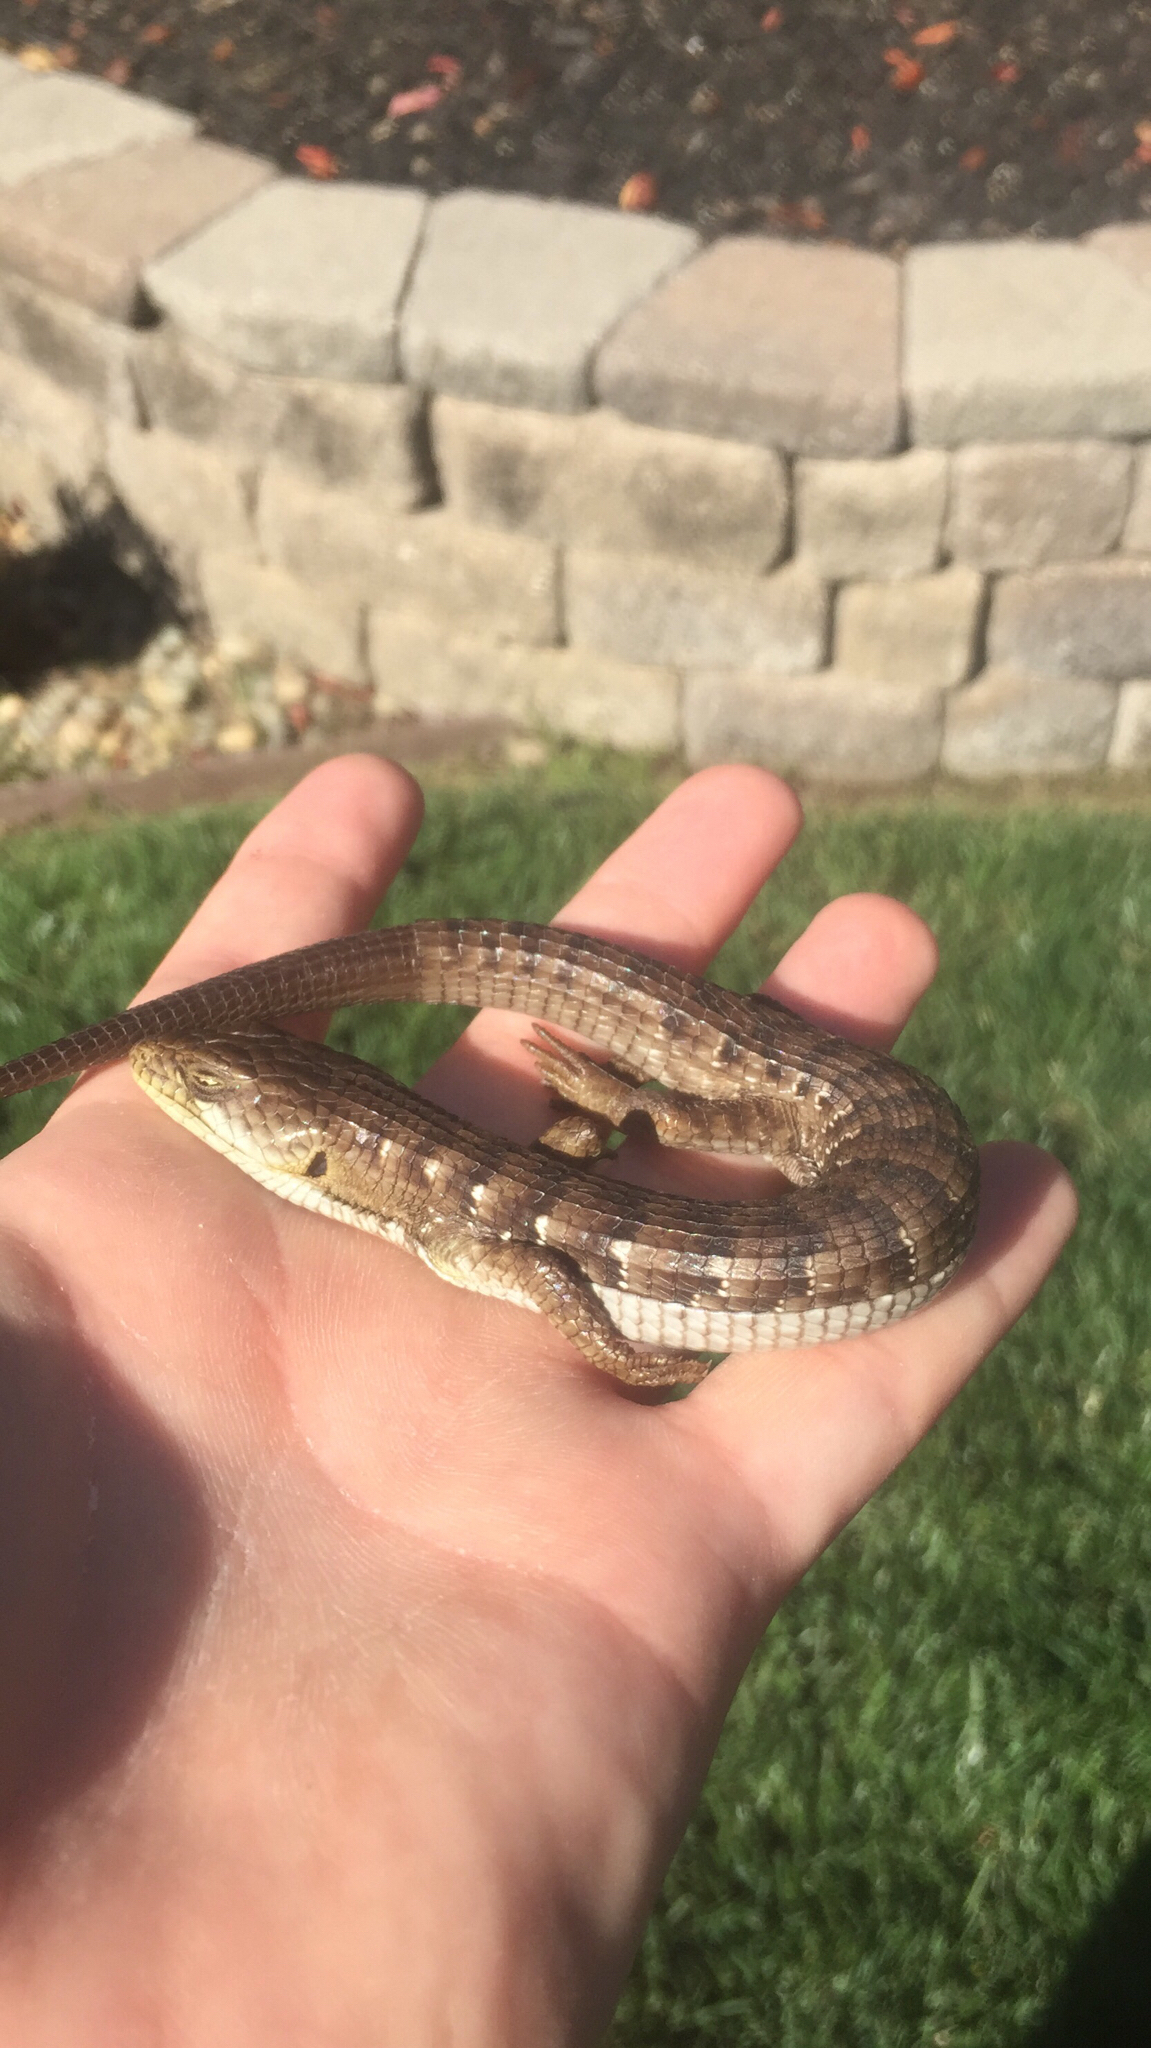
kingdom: Animalia
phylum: Chordata
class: Squamata
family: Anguidae
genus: Elgaria
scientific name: Elgaria multicarinata
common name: Southern alligator lizard
